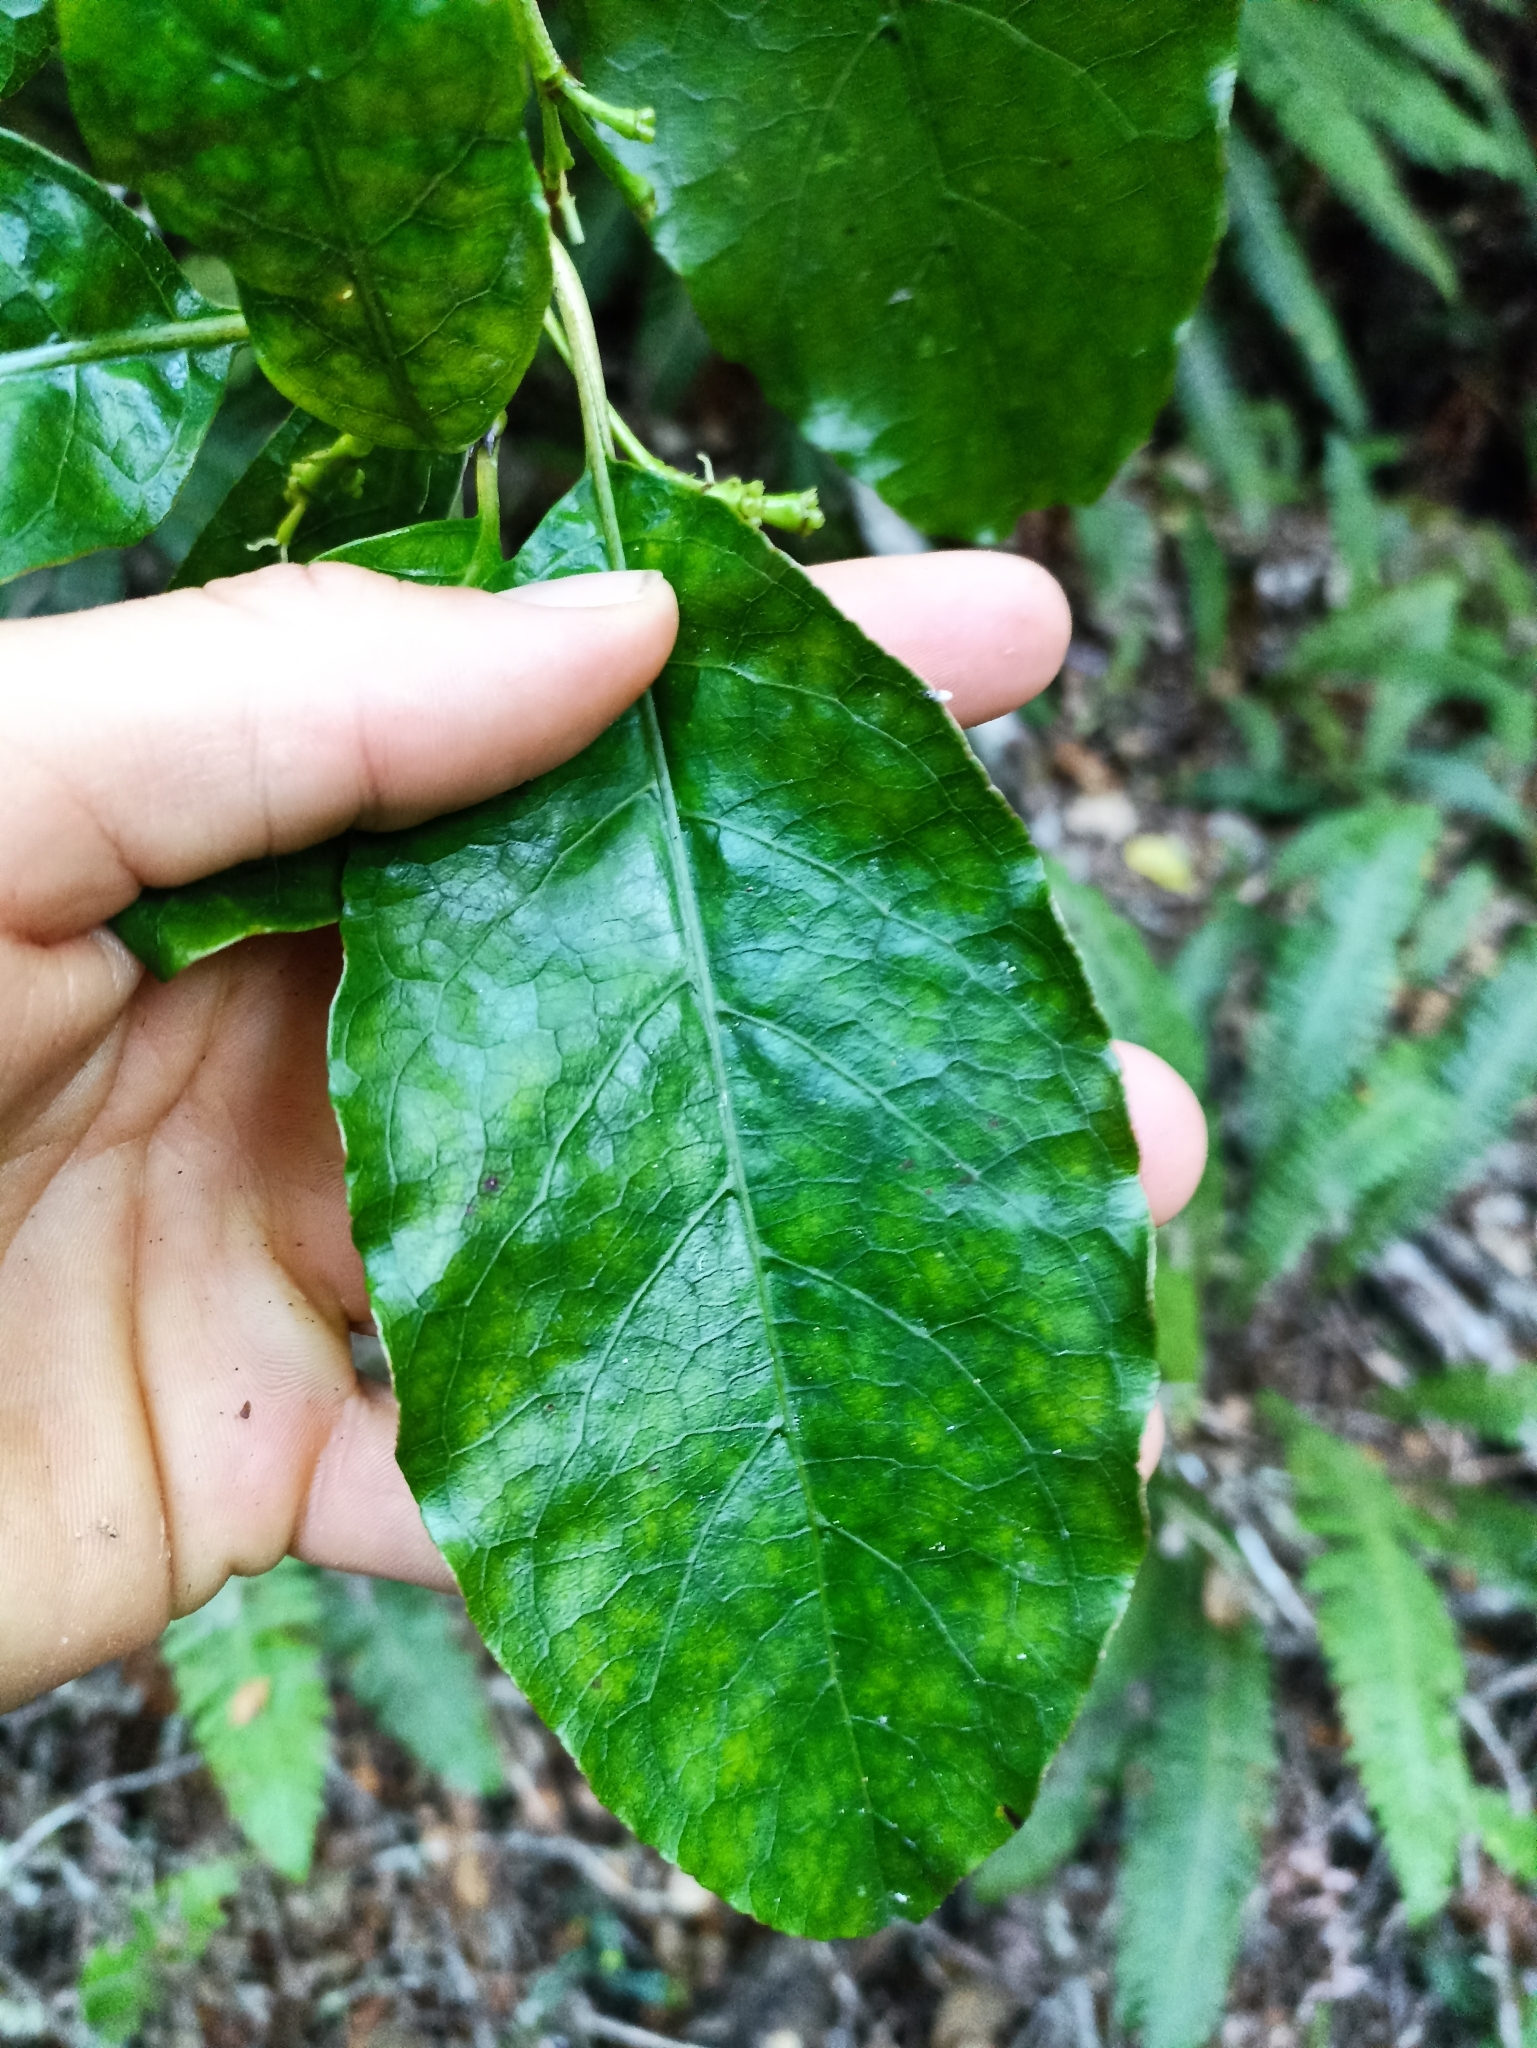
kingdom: Plantae
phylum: Tracheophyta
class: Magnoliopsida
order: Gentianales
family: Rubiaceae
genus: Coprosma
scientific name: Coprosma autumnalis
